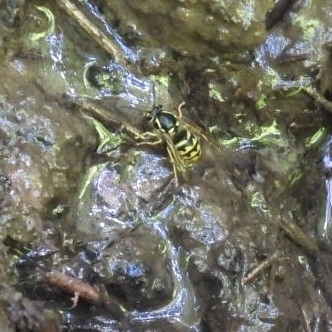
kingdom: Animalia
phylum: Arthropoda
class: Insecta
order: Hymenoptera
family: Vespidae
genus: Dolichovespula
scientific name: Dolichovespula arenaria
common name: Aerial yellowjacket
